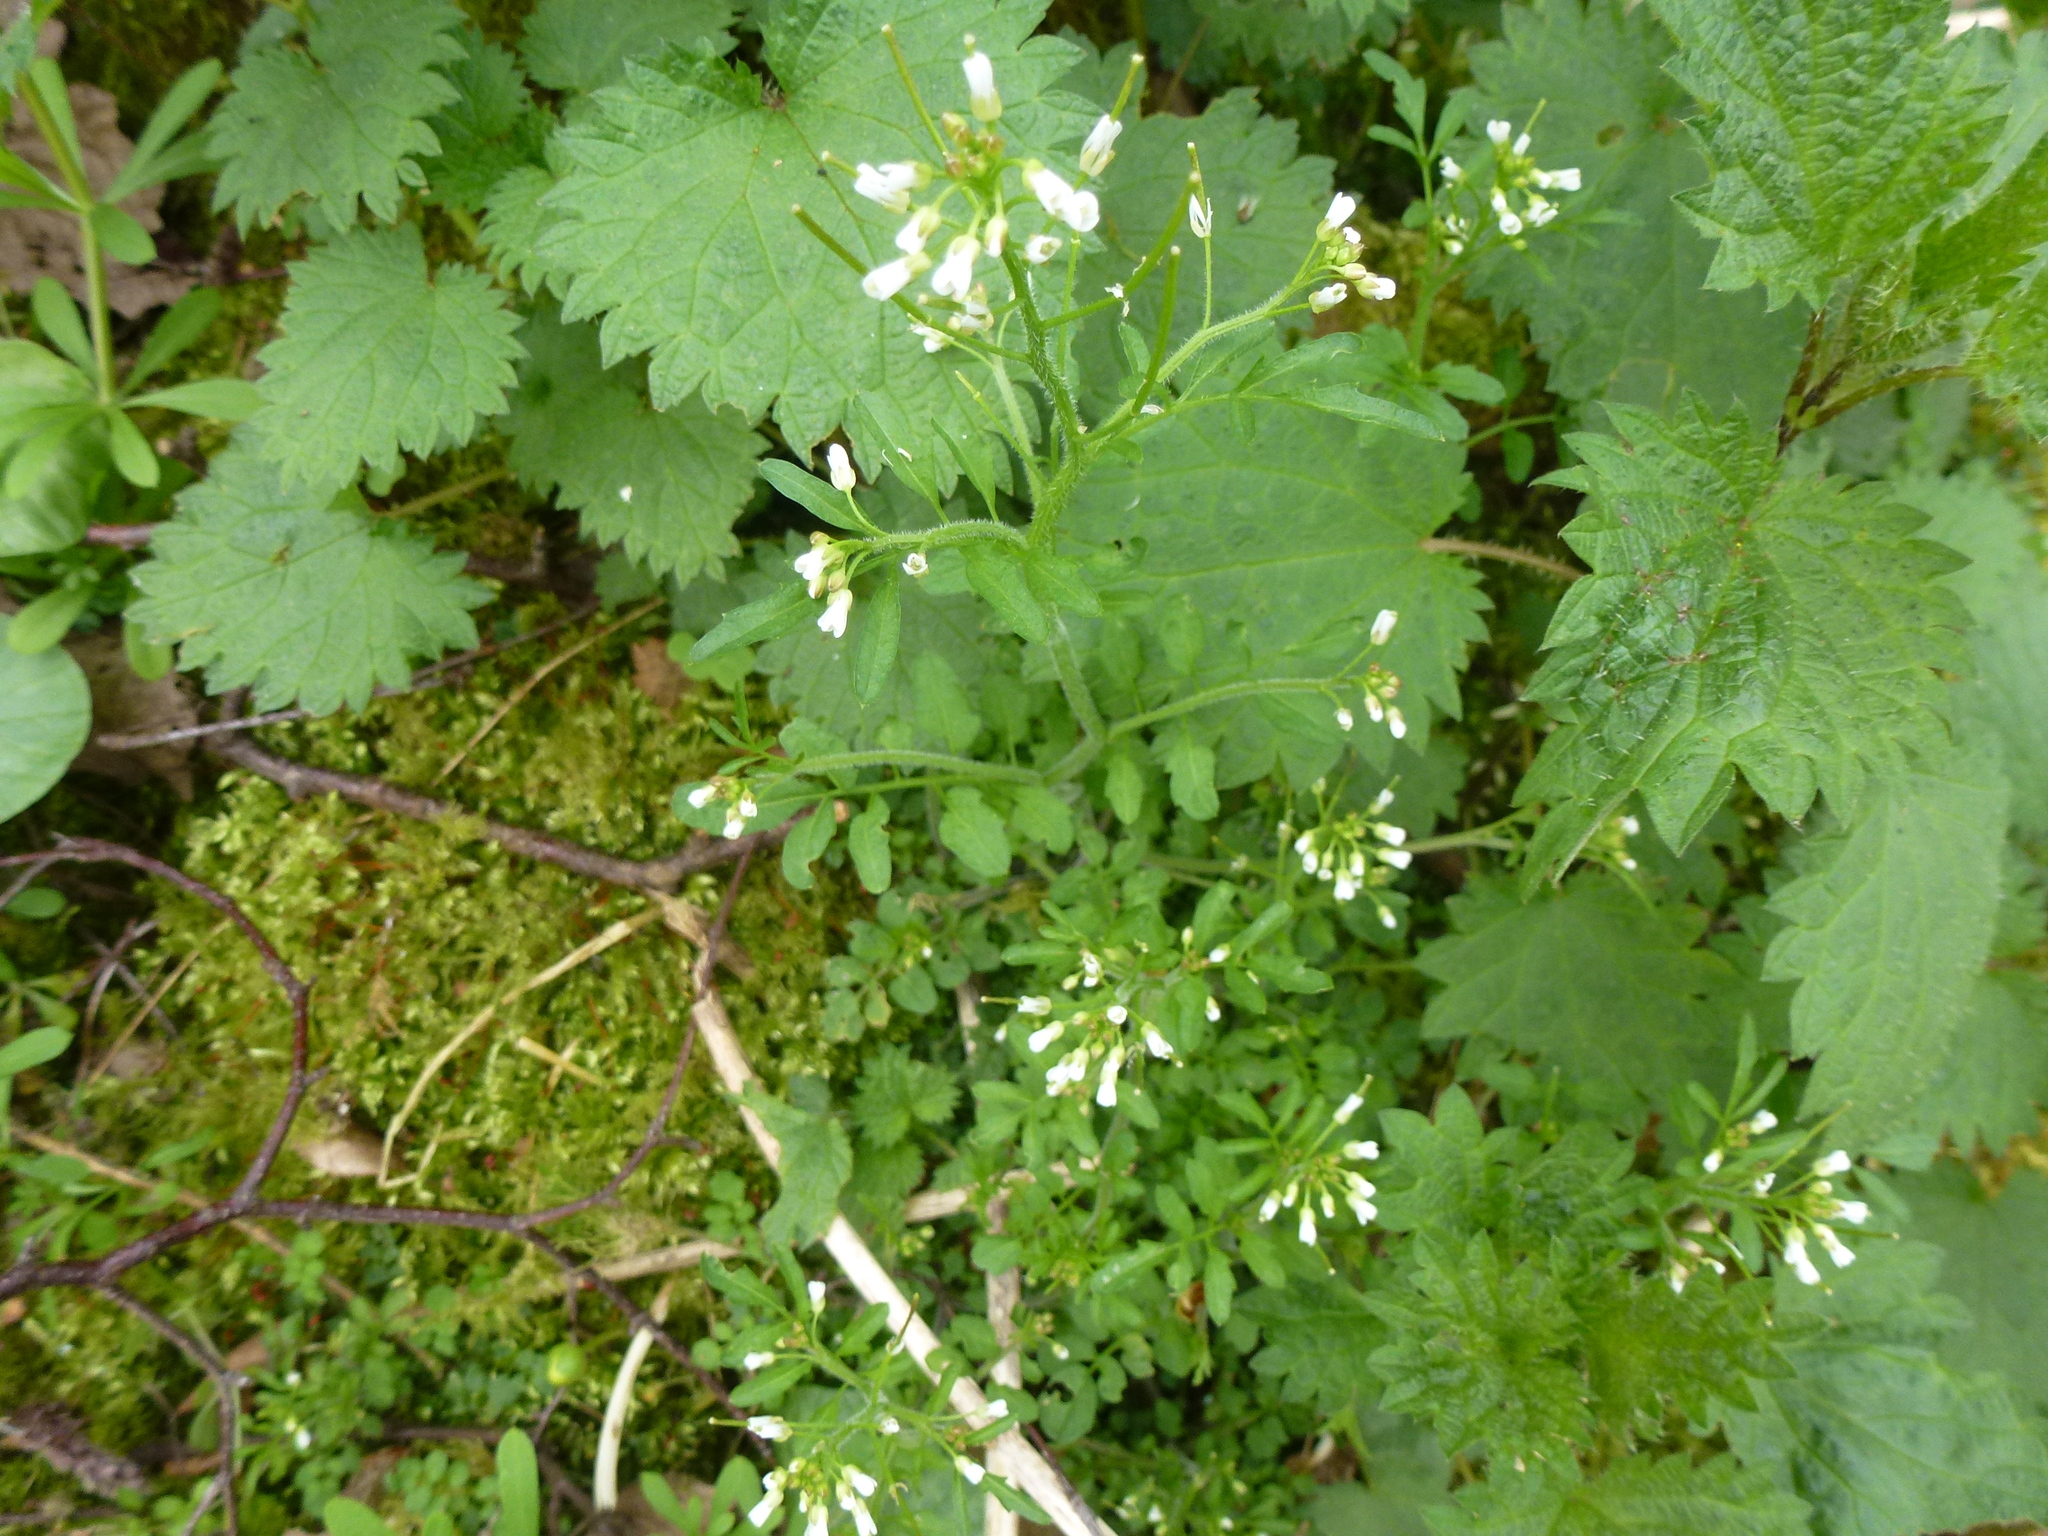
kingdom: Plantae
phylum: Tracheophyta
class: Magnoliopsida
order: Brassicales
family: Brassicaceae
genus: Cardamine
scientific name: Cardamine flexuosa
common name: Woodland bittercress
